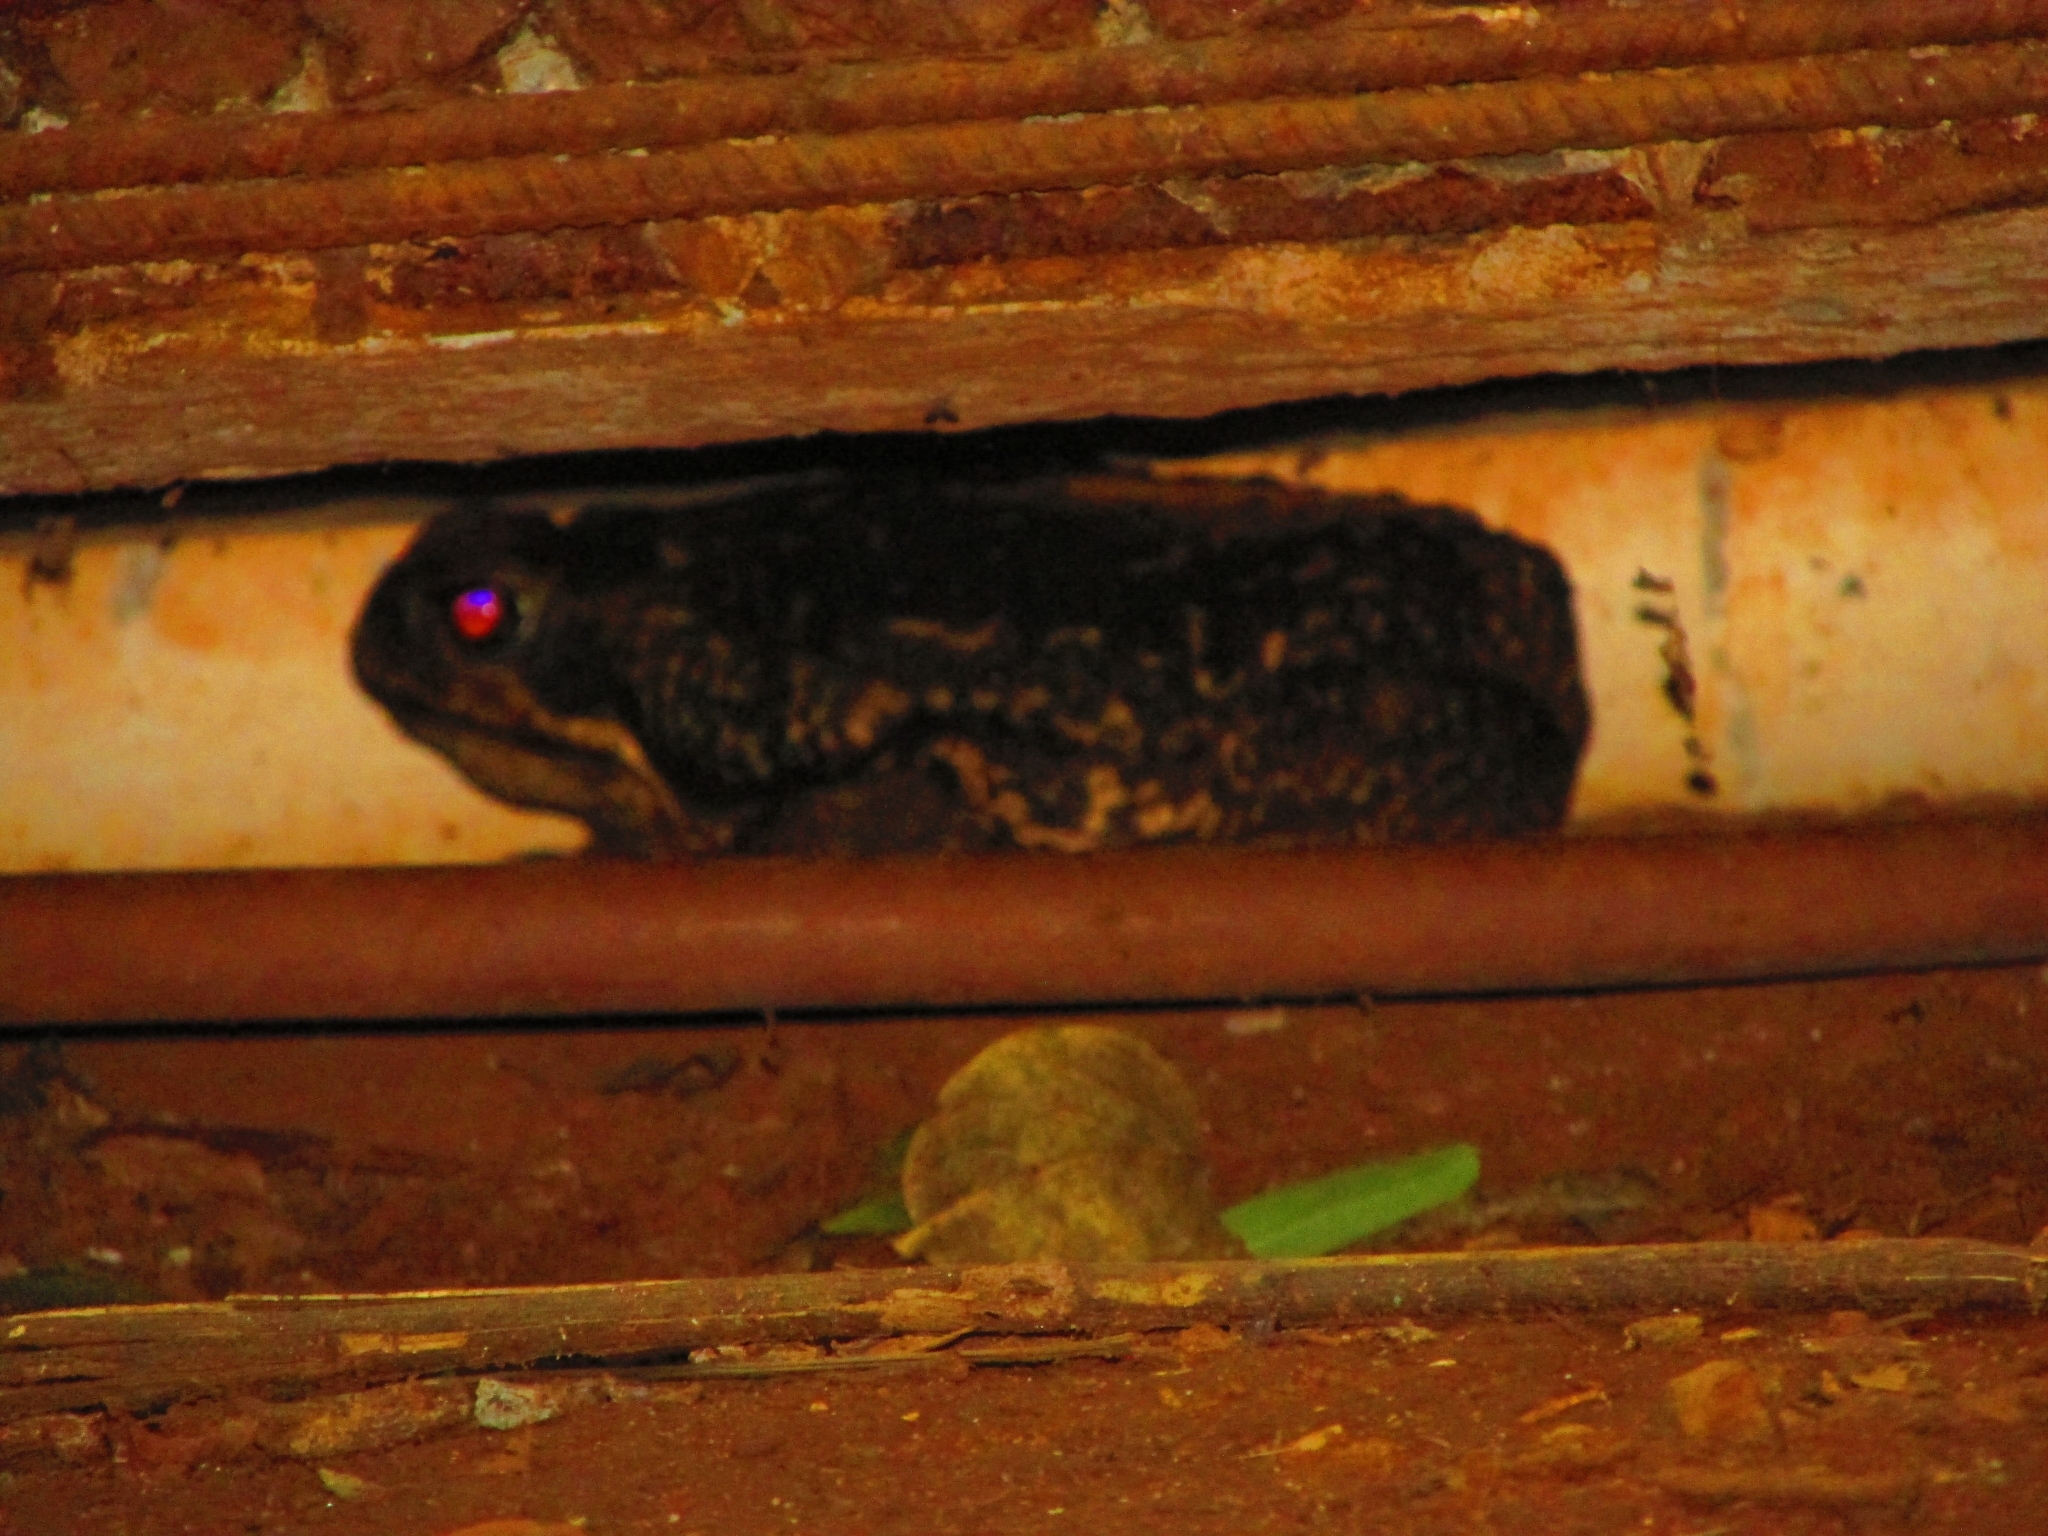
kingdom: Animalia
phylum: Chordata
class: Amphibia
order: Anura
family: Bufonidae
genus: Rhinella
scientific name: Rhinella diptycha
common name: Cope's toad
